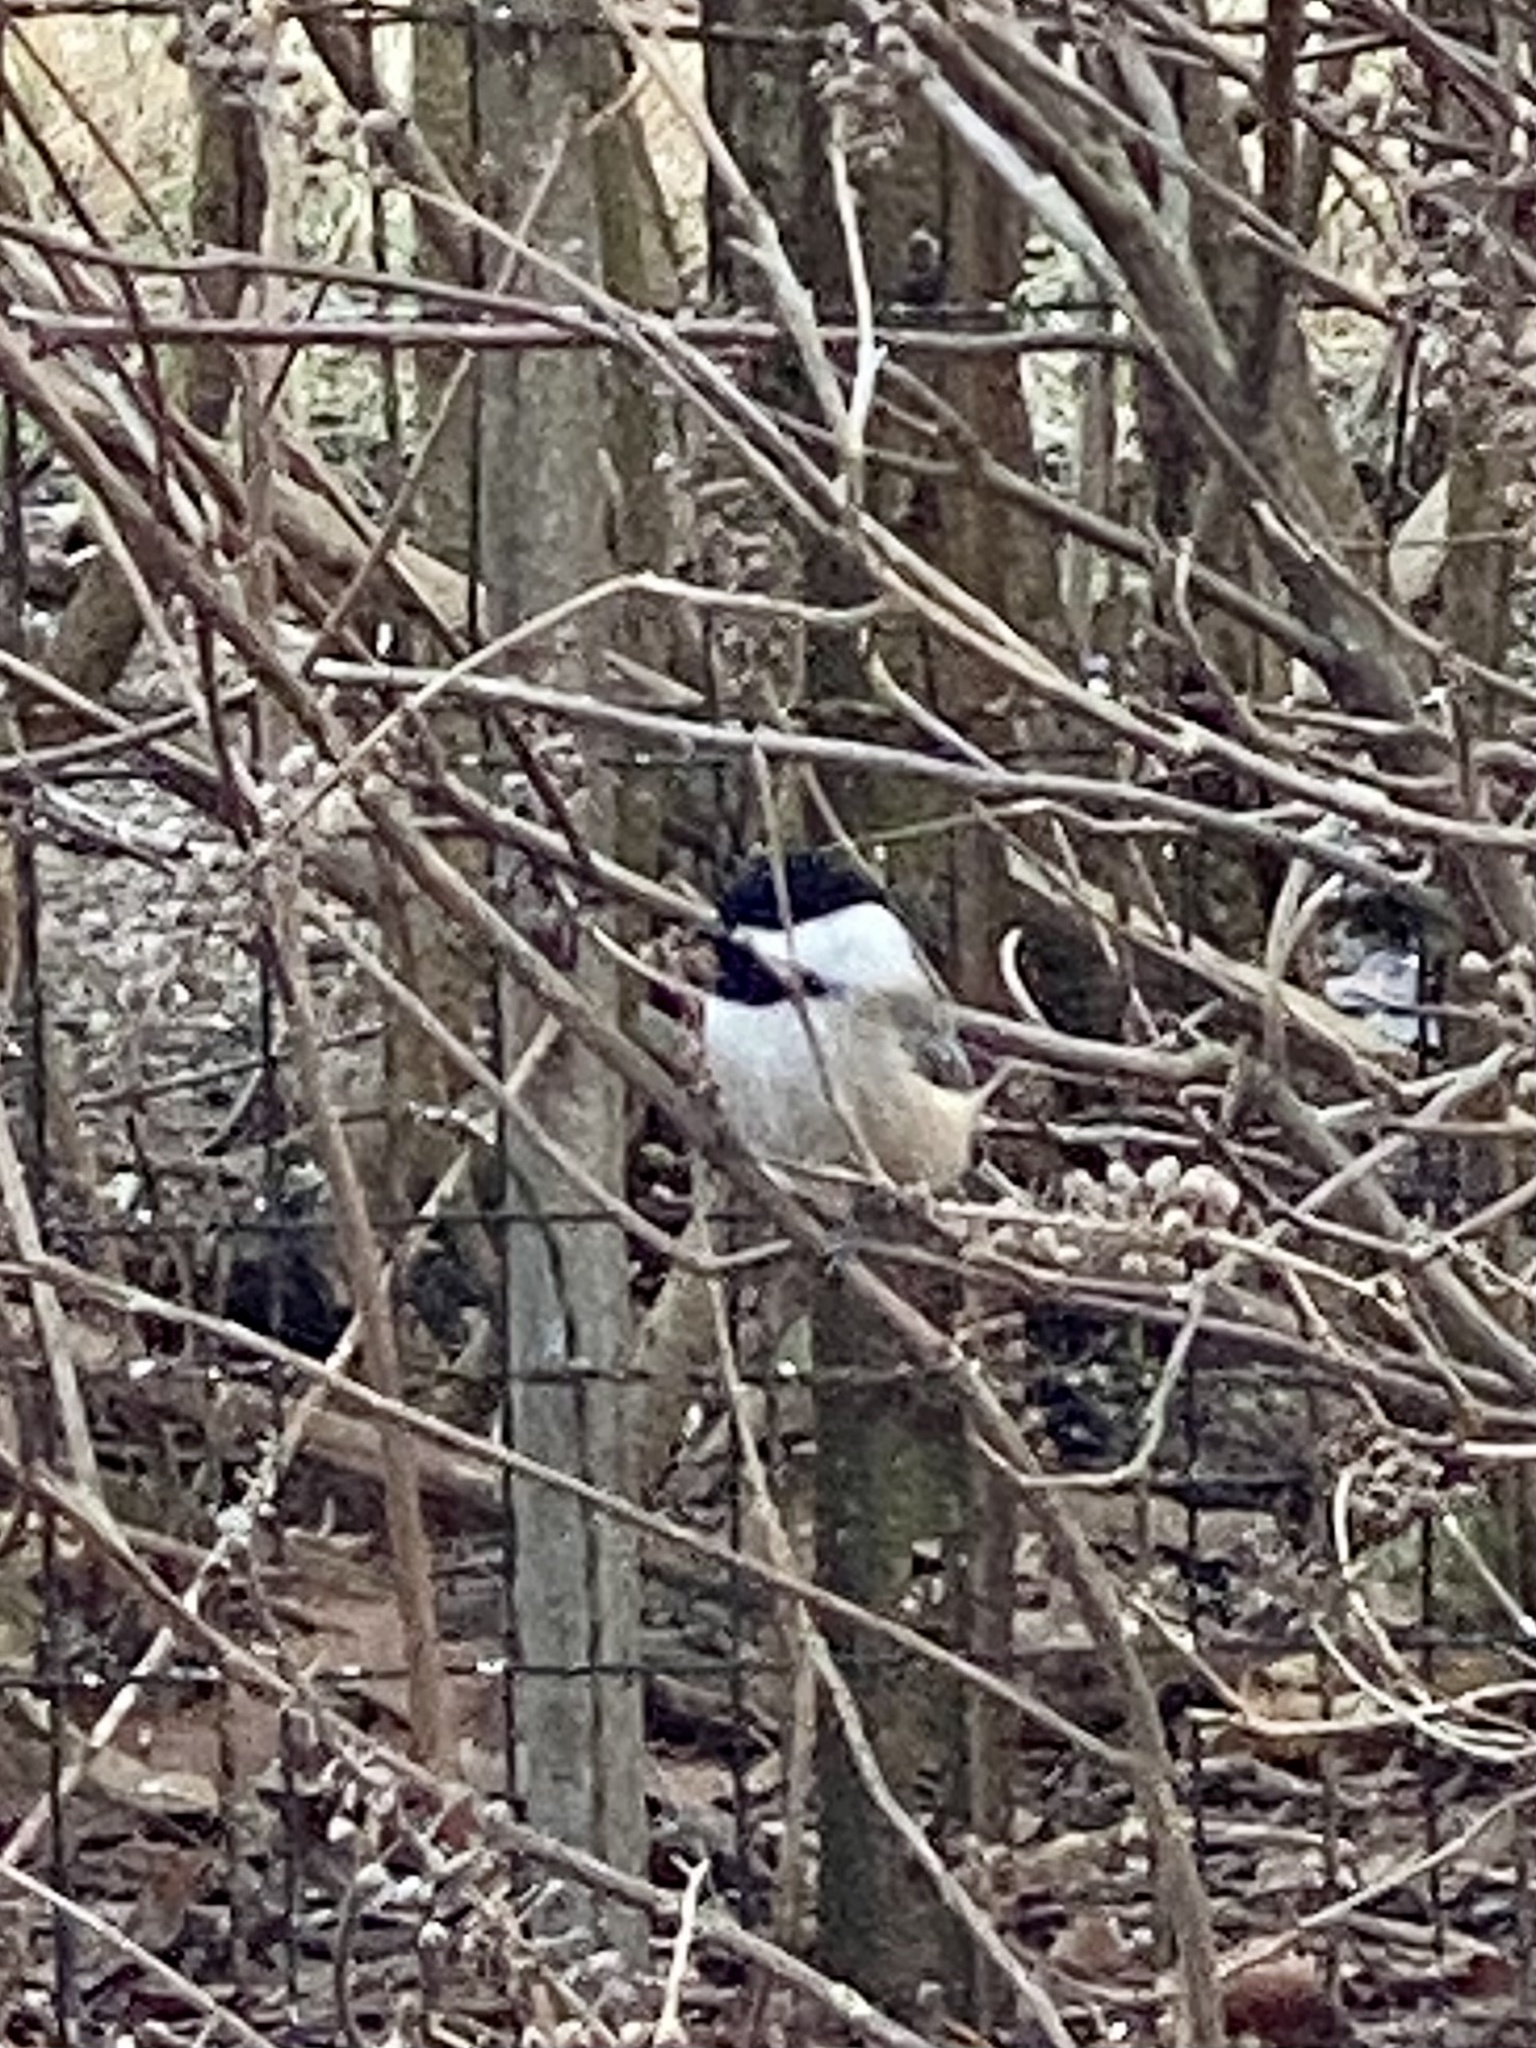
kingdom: Animalia
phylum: Chordata
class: Aves
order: Passeriformes
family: Paridae
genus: Poecile
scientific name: Poecile atricapillus
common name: Black-capped chickadee
